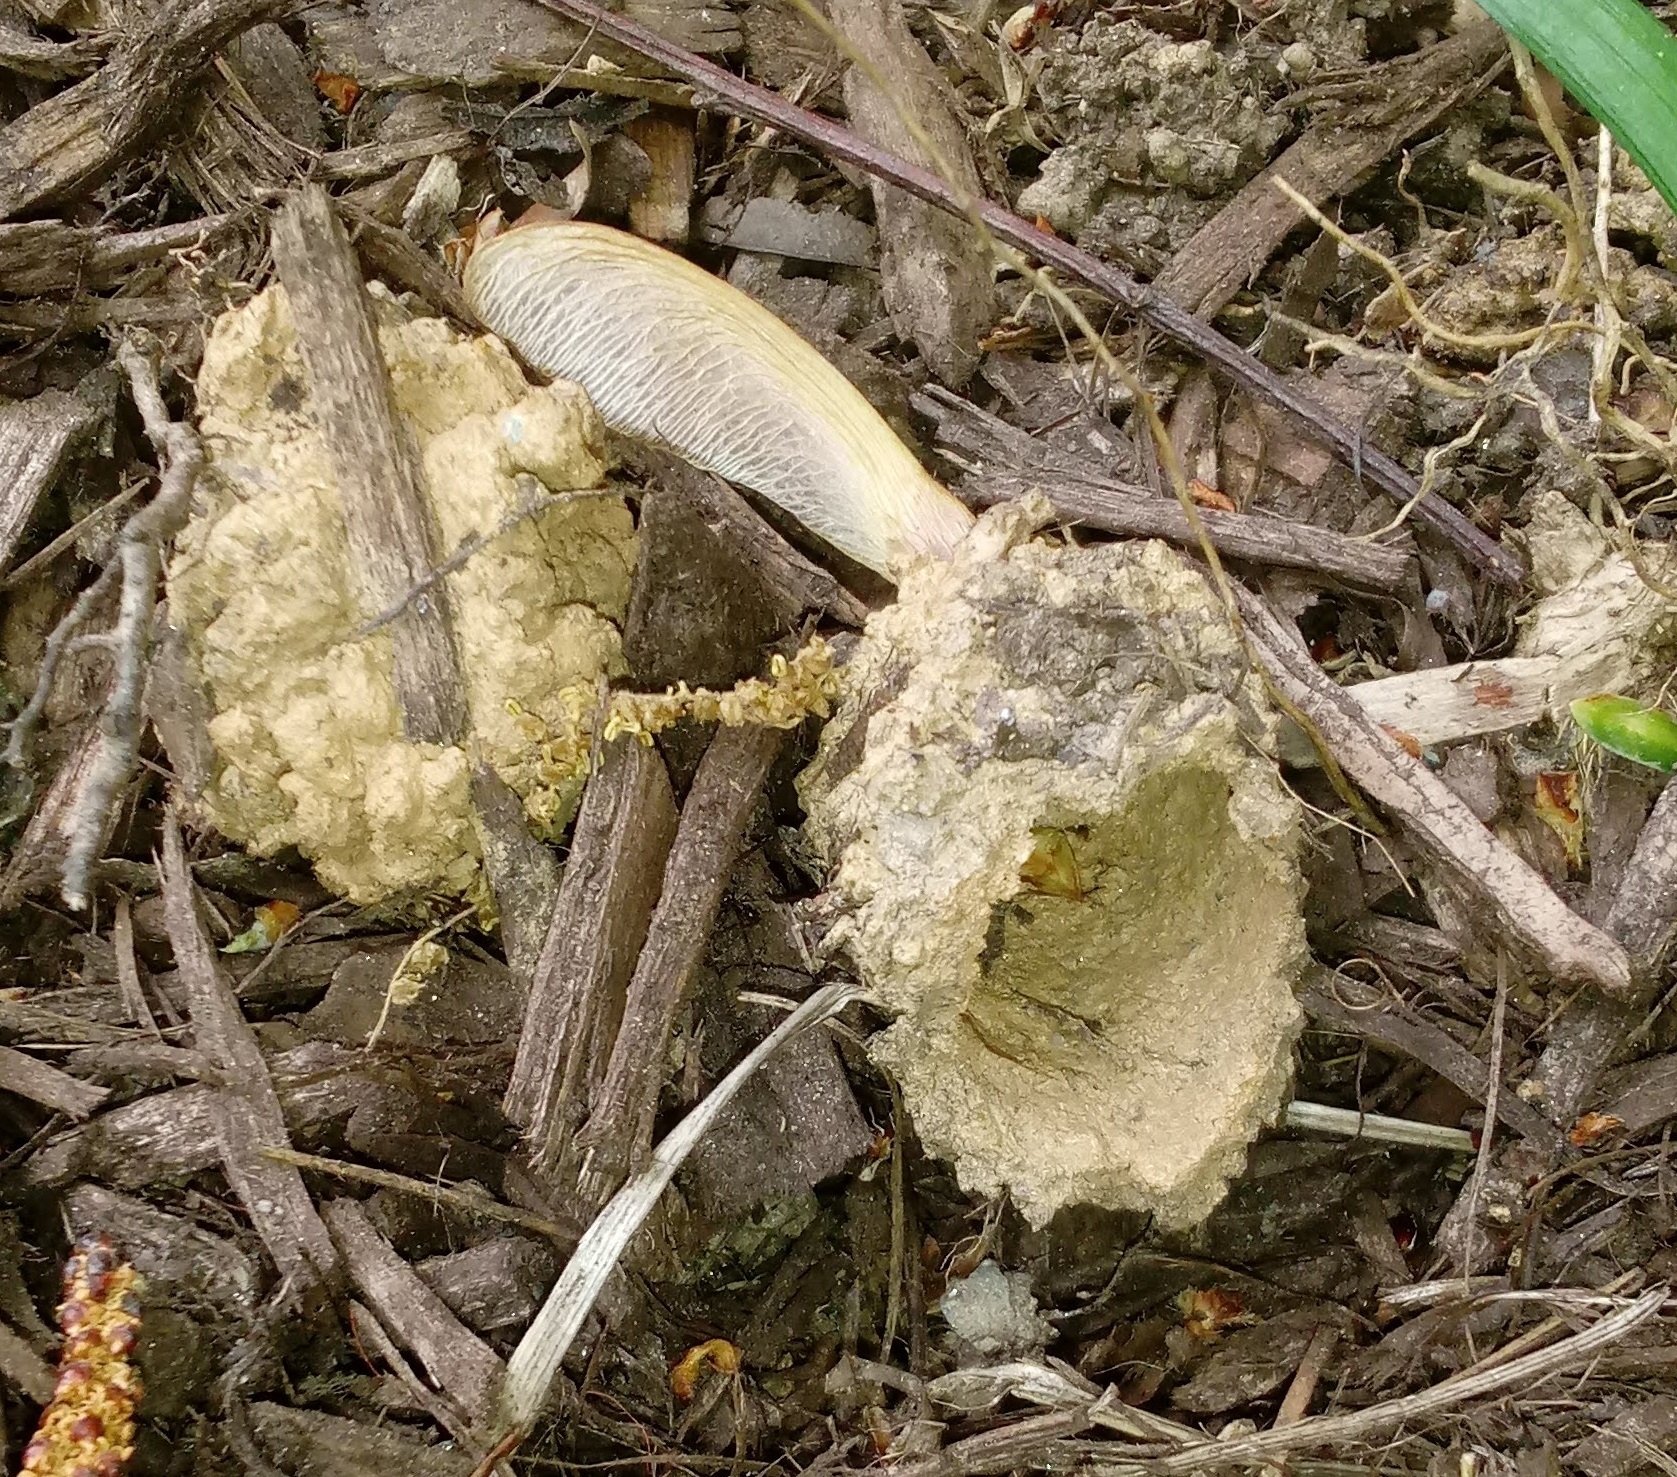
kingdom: Animalia
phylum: Arthropoda
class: Insecta
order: Hemiptera
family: Cicadidae
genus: Magicicada
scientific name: Magicicada
